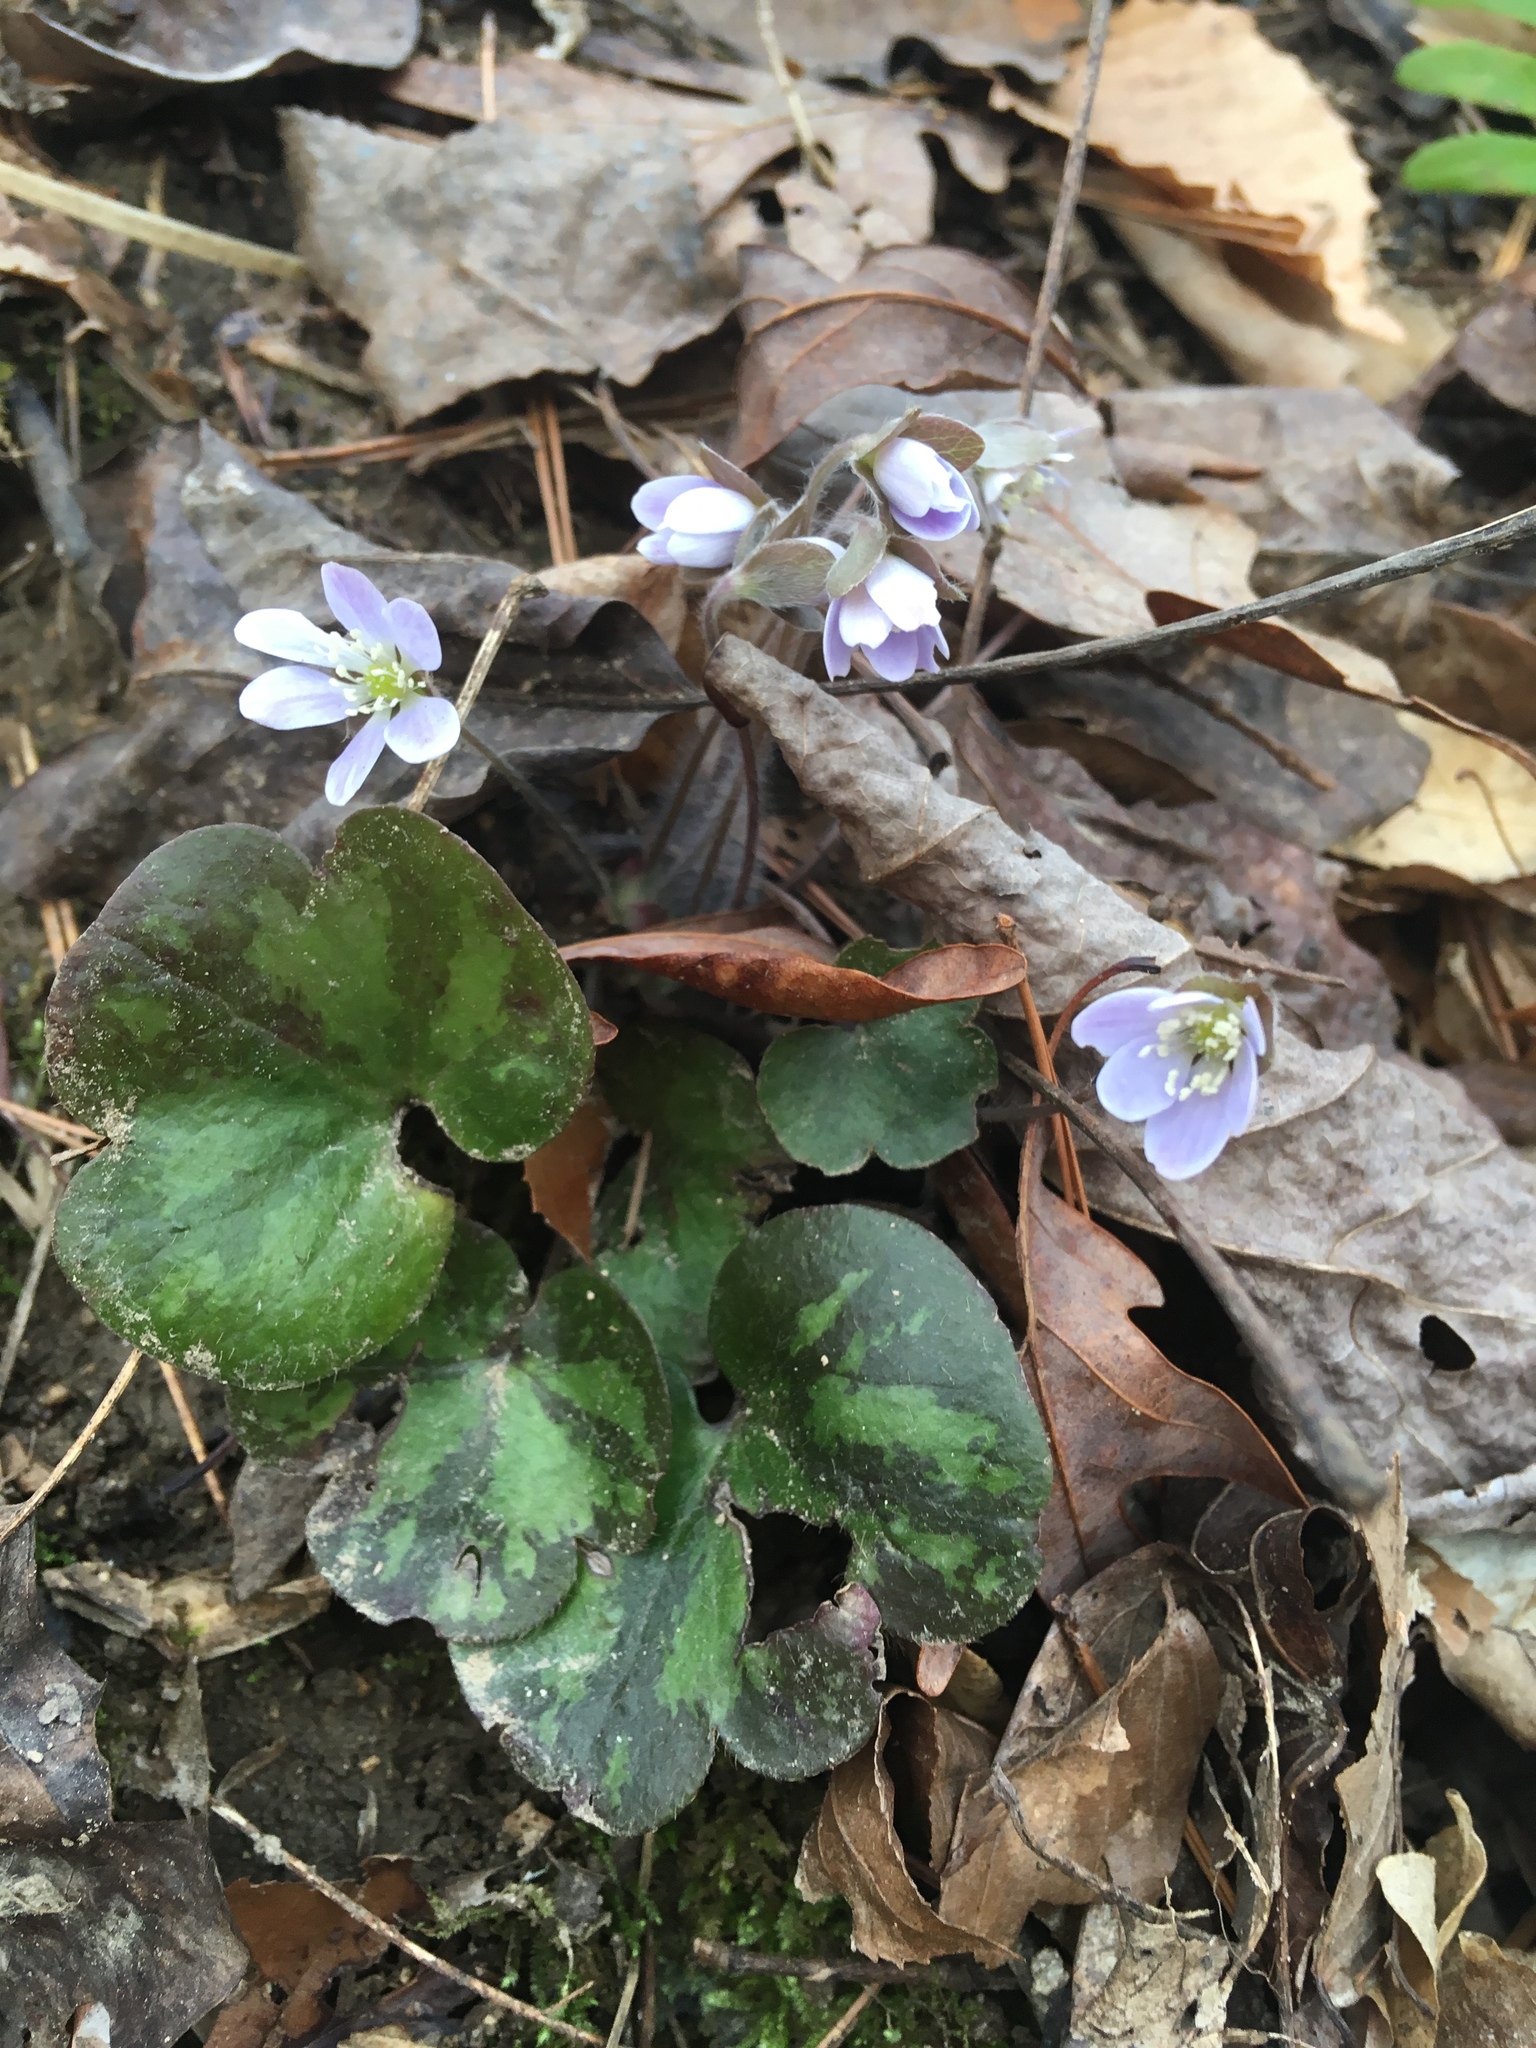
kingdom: Plantae
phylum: Tracheophyta
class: Magnoliopsida
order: Ranunculales
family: Ranunculaceae
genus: Hepatica
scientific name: Hepatica americana
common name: American hepatica
